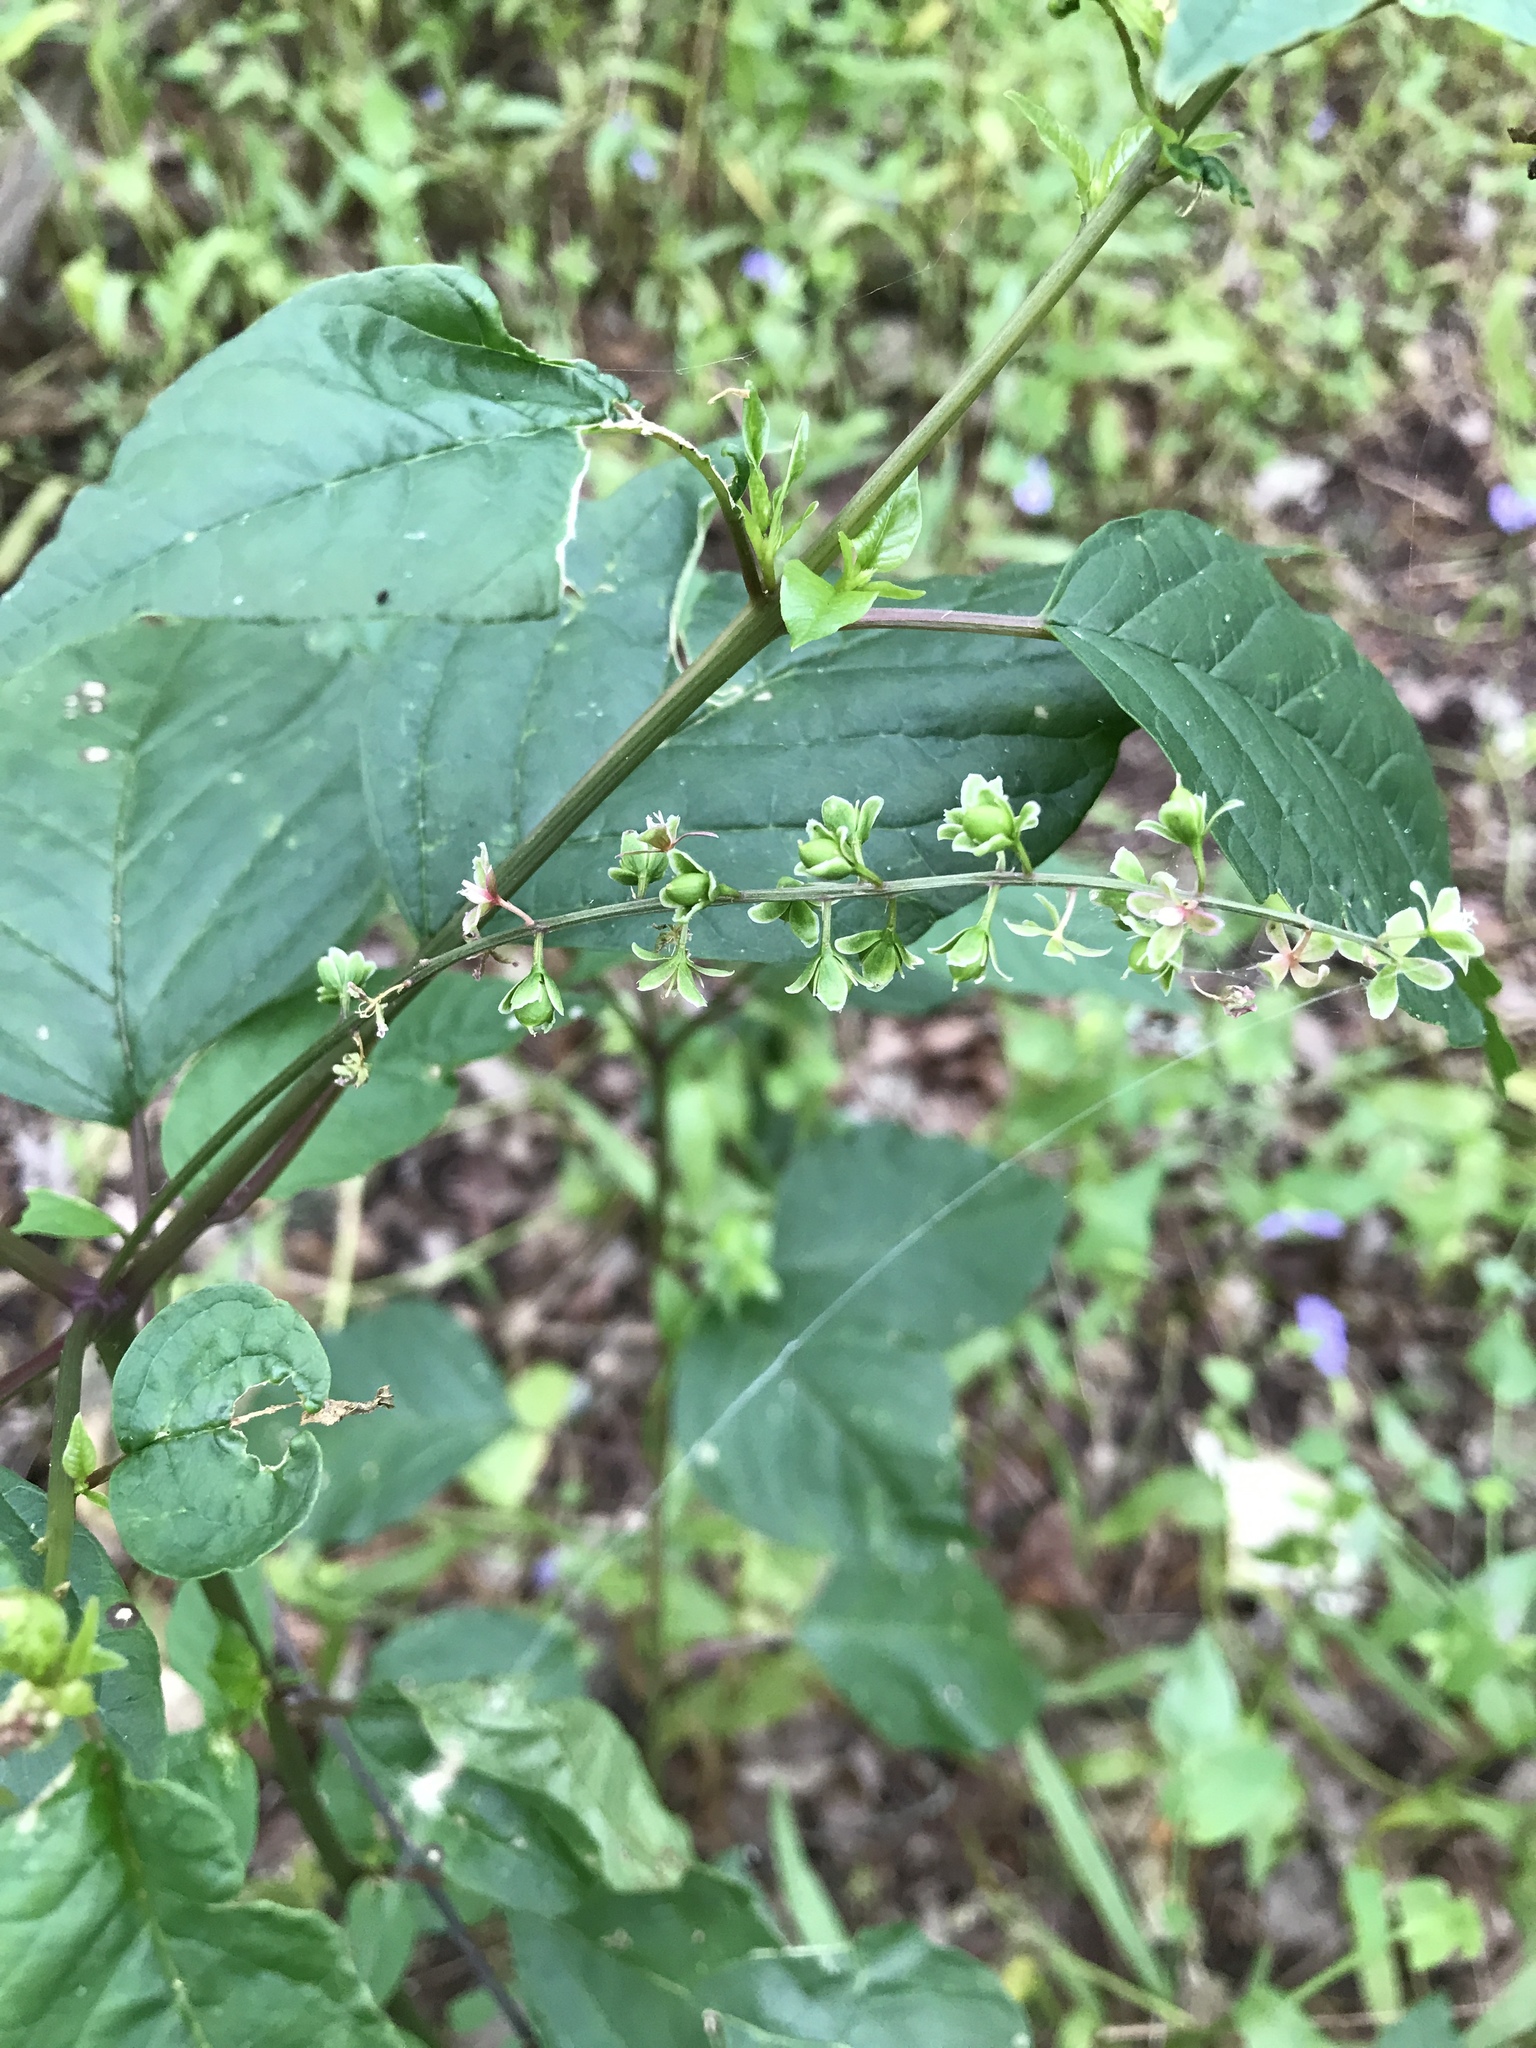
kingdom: Plantae
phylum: Tracheophyta
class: Magnoliopsida
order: Caryophyllales
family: Phytolaccaceae
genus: Rivina
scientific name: Rivina humilis
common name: Rougeplant
